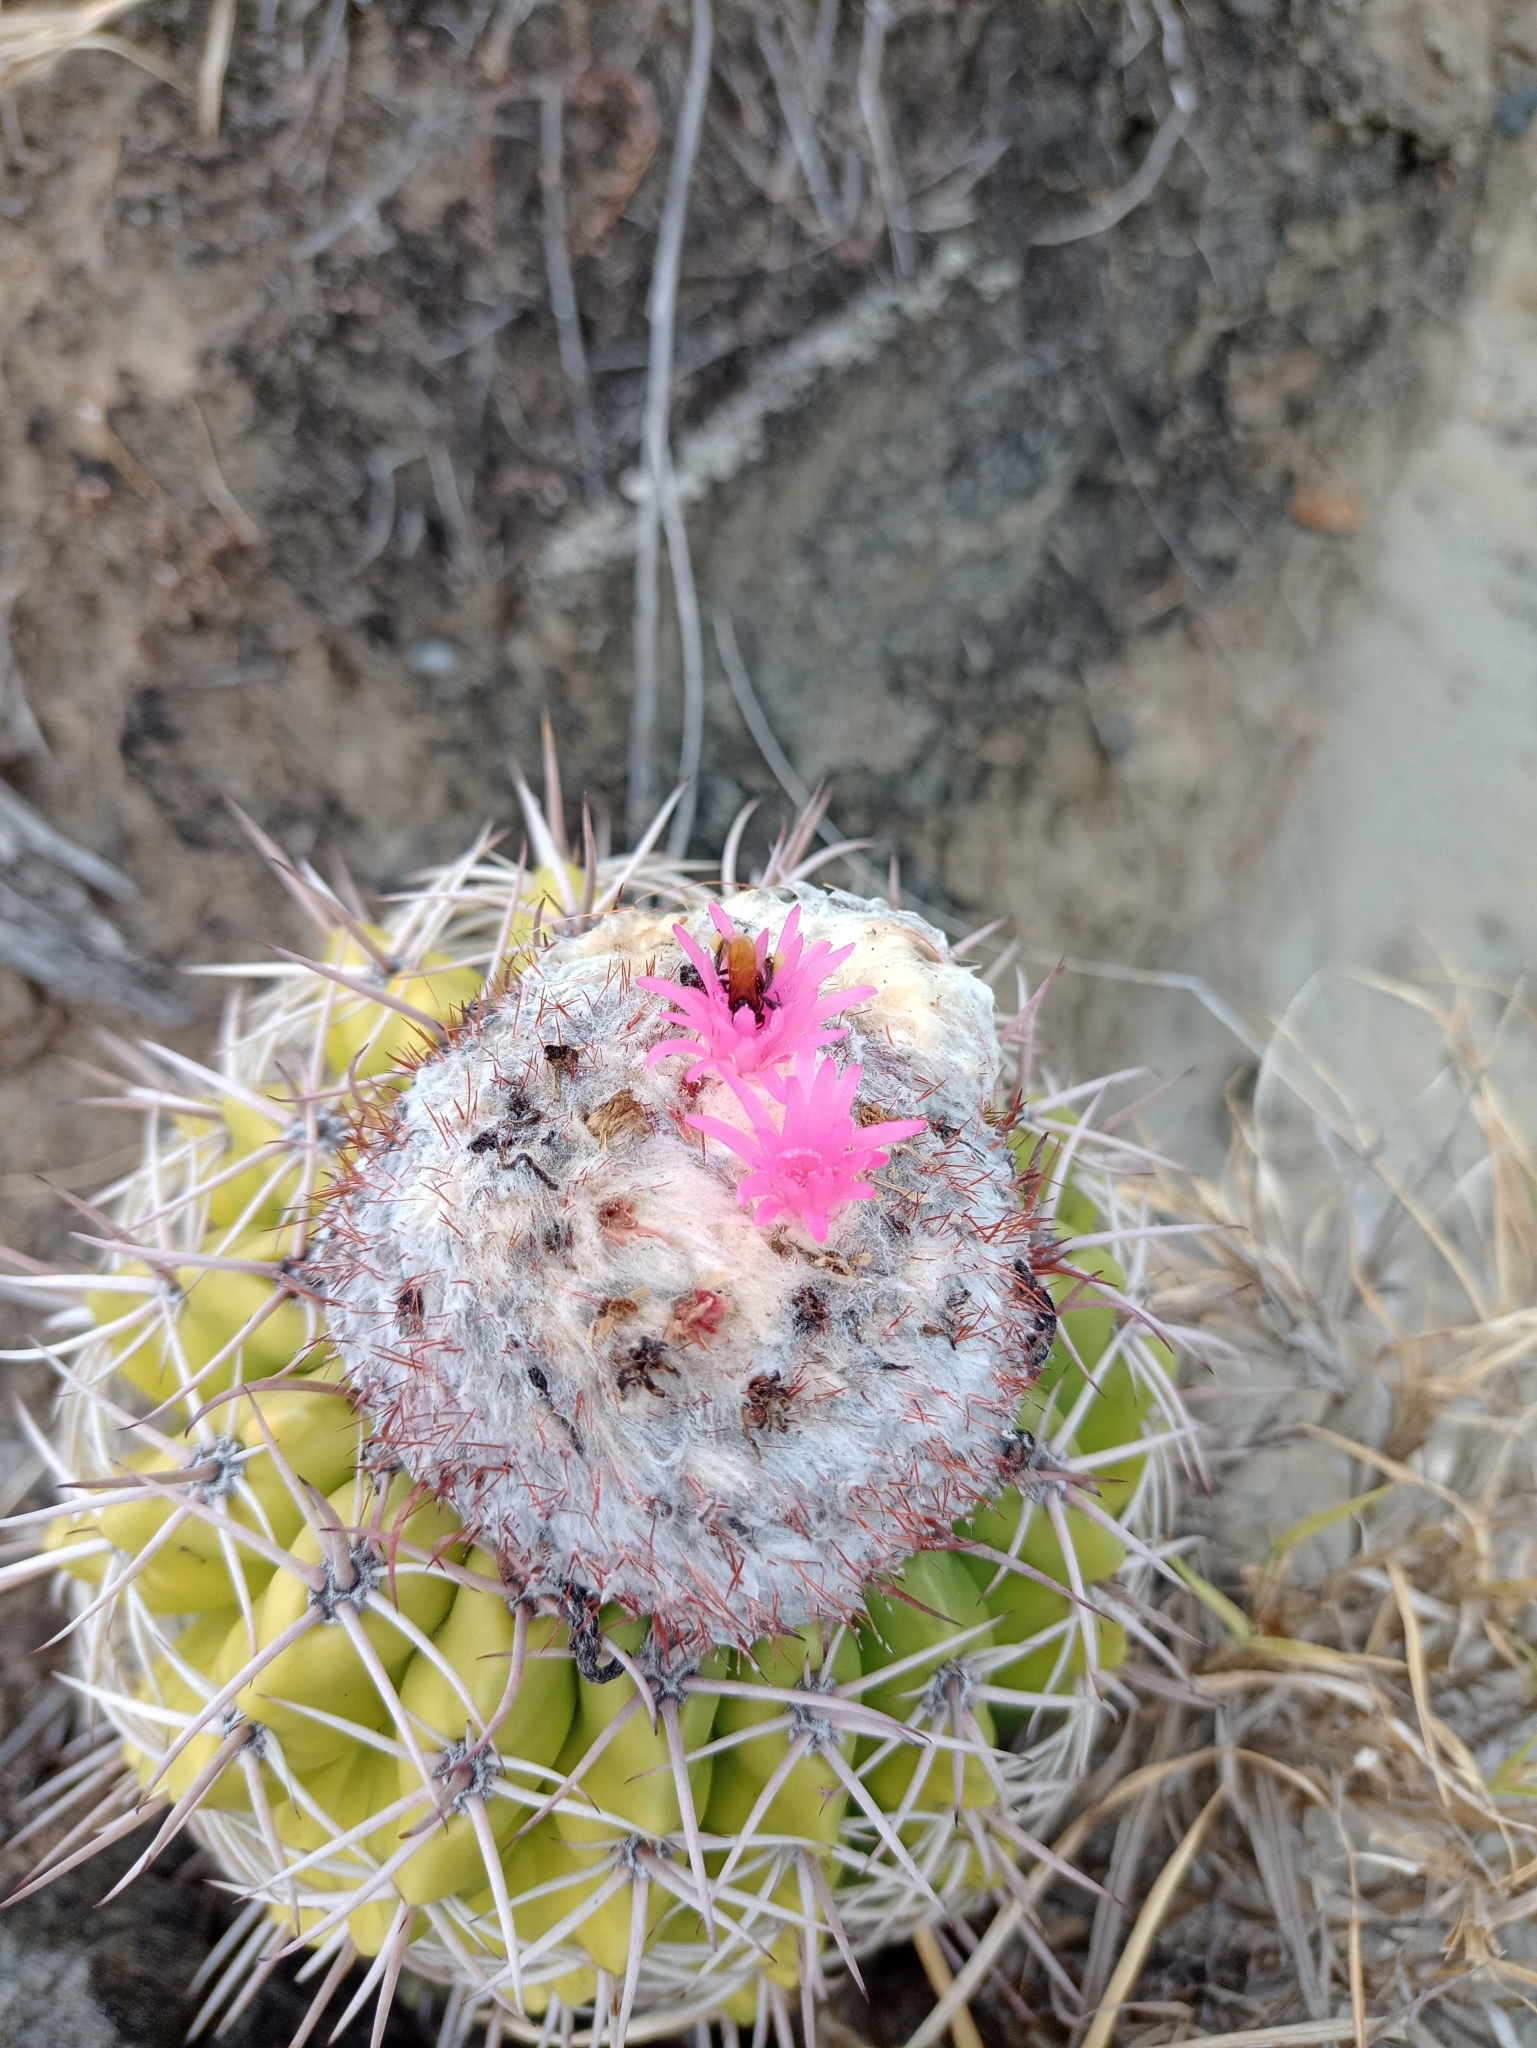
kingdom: Plantae
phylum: Tracheophyta
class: Magnoliopsida
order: Caryophyllales
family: Cactaceae
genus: Melocactus
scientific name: Melocactus curvispinus
